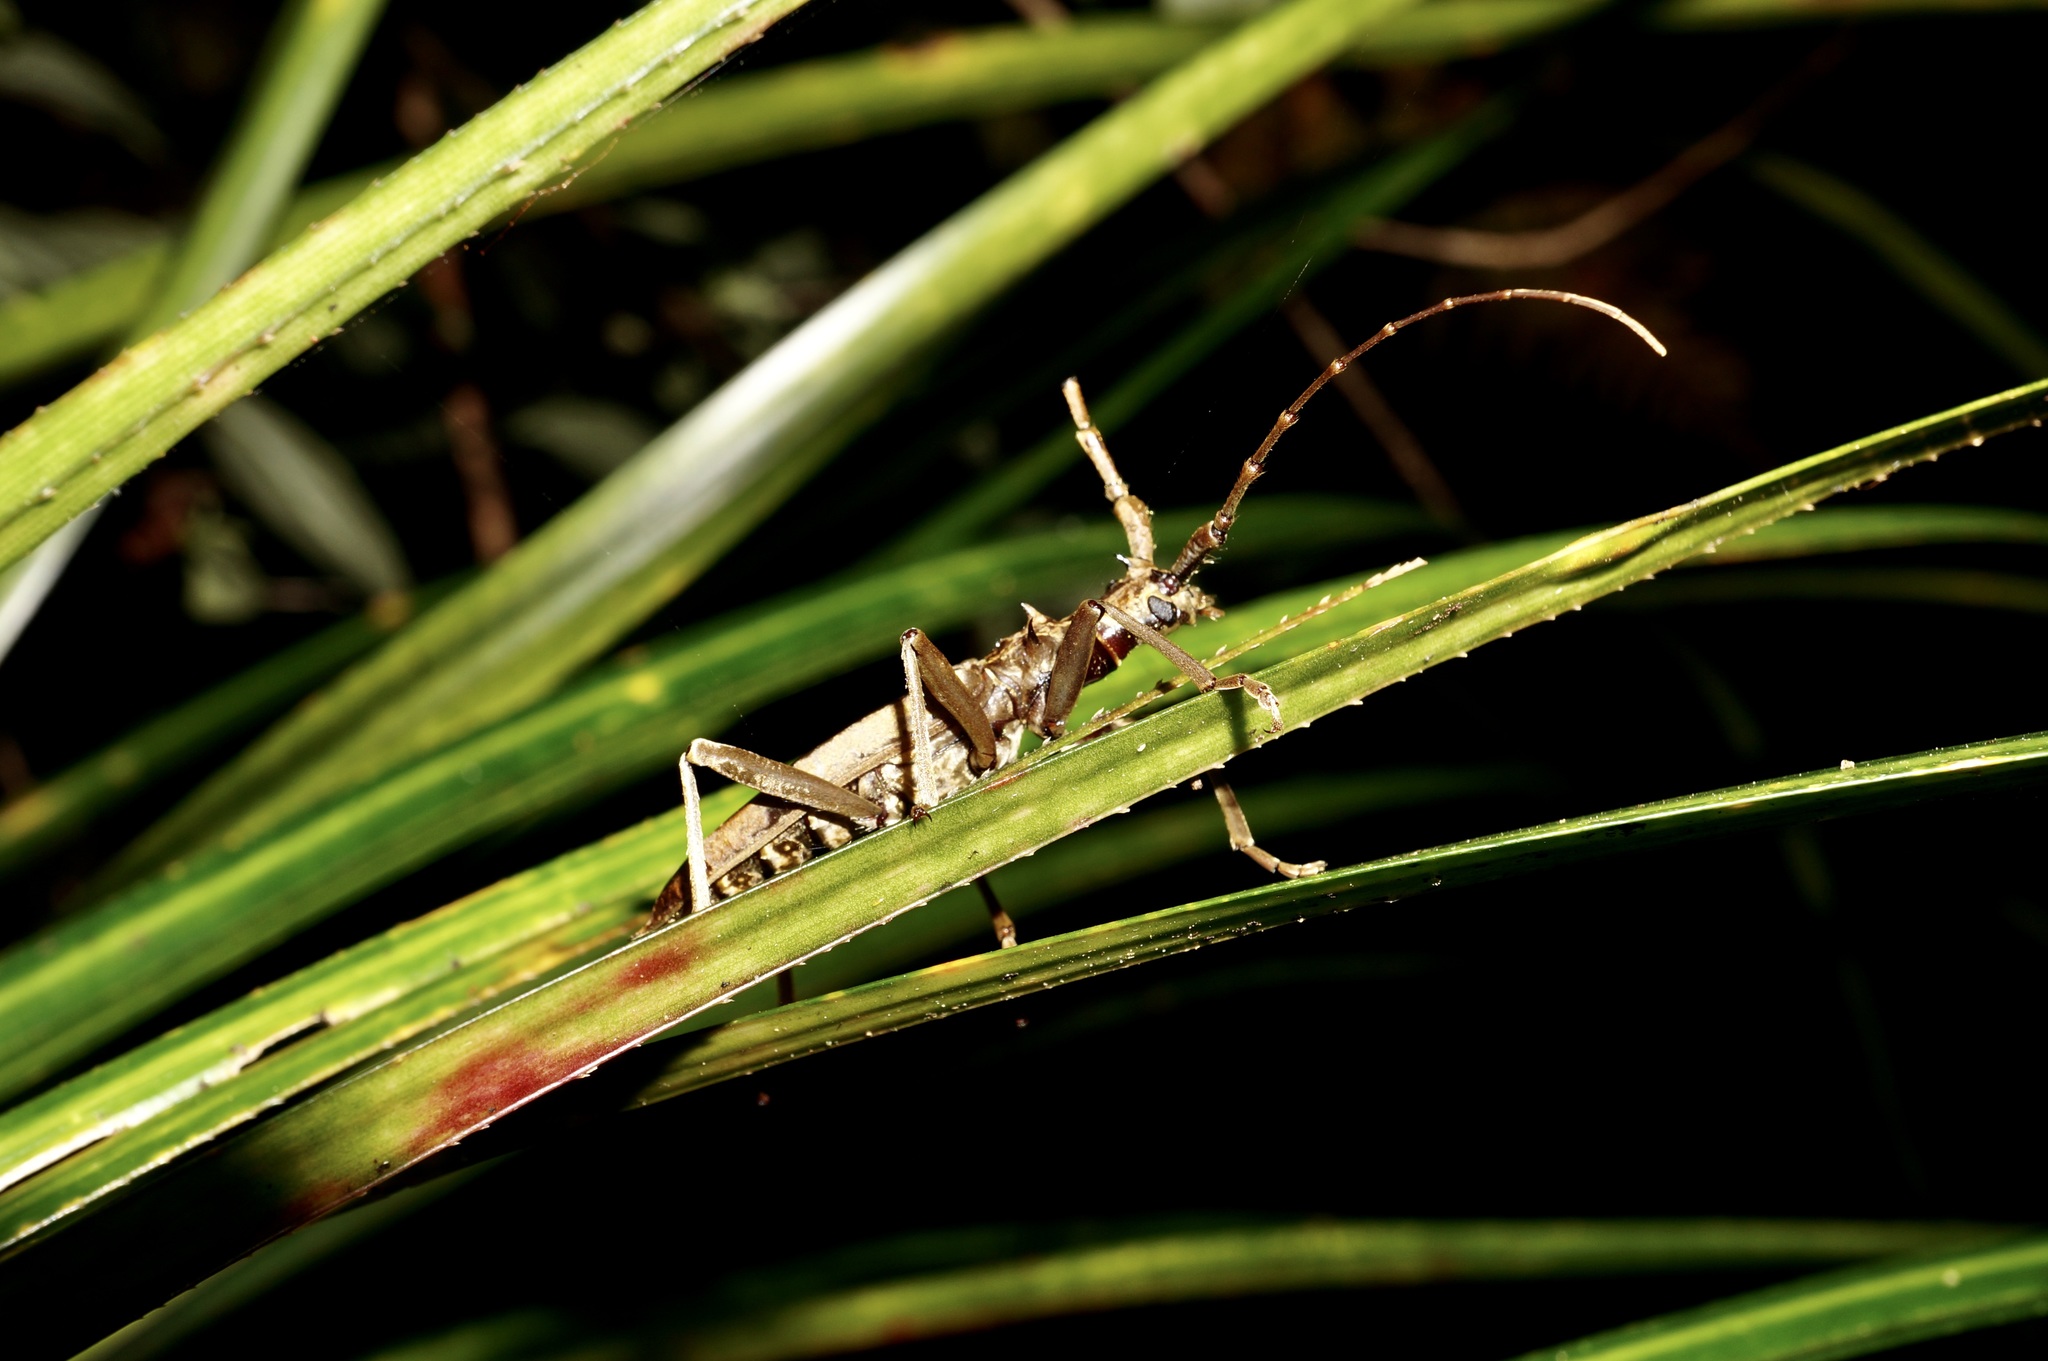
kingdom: Animalia
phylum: Arthropoda
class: Insecta
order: Coleoptera
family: Cerambycidae
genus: Blosyropus
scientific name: Blosyropus spinosus
